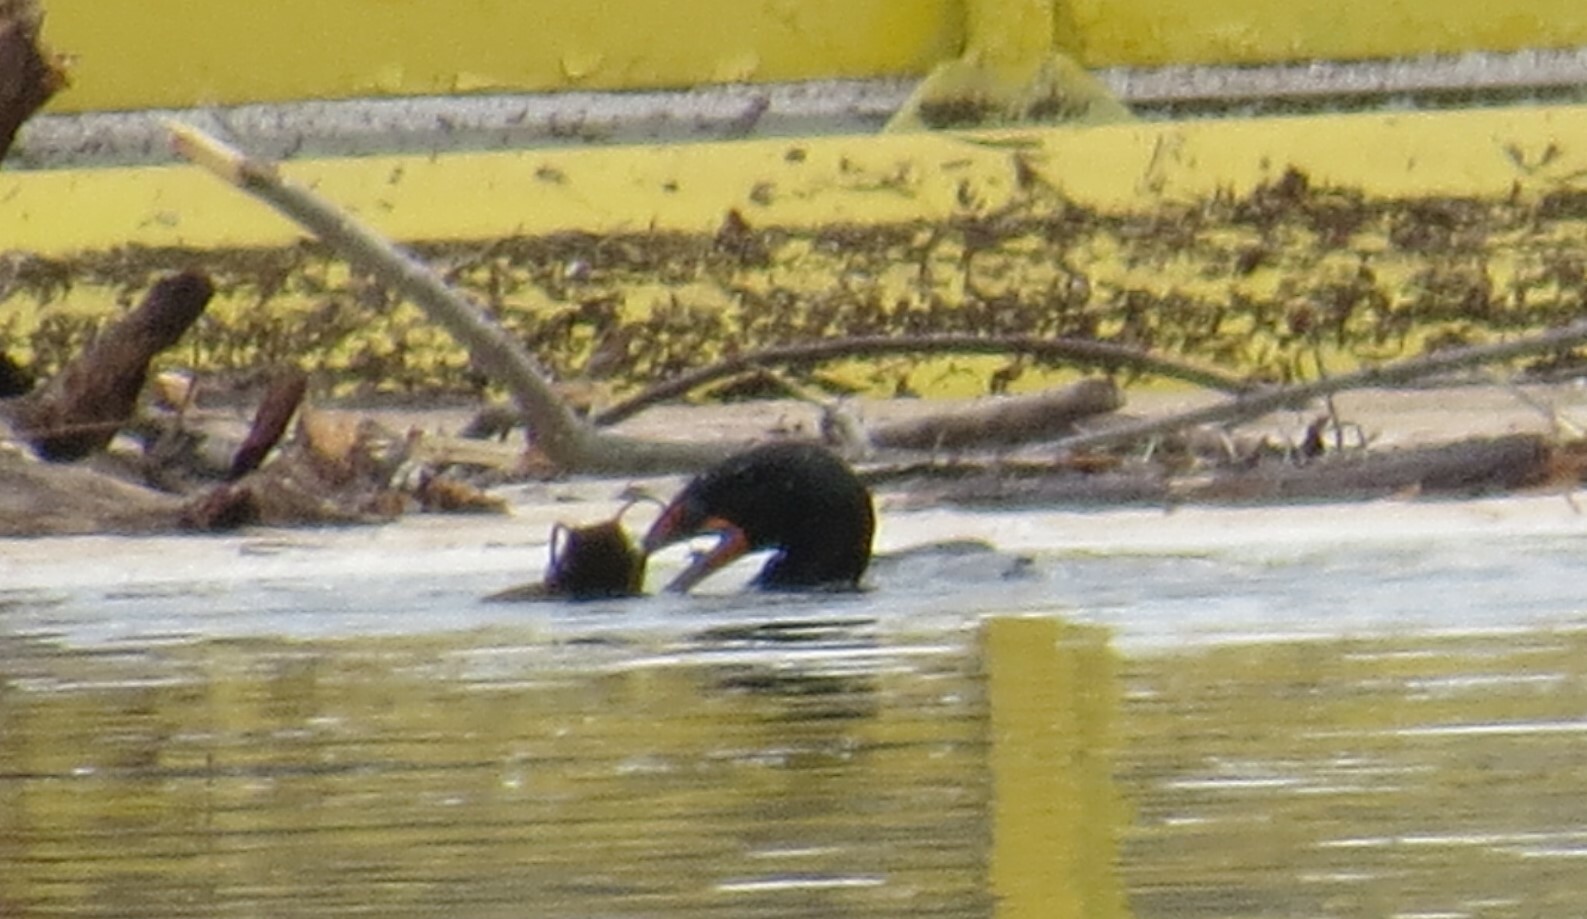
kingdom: Animalia
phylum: Chordata
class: Aves
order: Suliformes
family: Phalacrocoracidae
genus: Phalacrocorax
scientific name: Phalacrocorax auritus
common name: Double-crested cormorant
